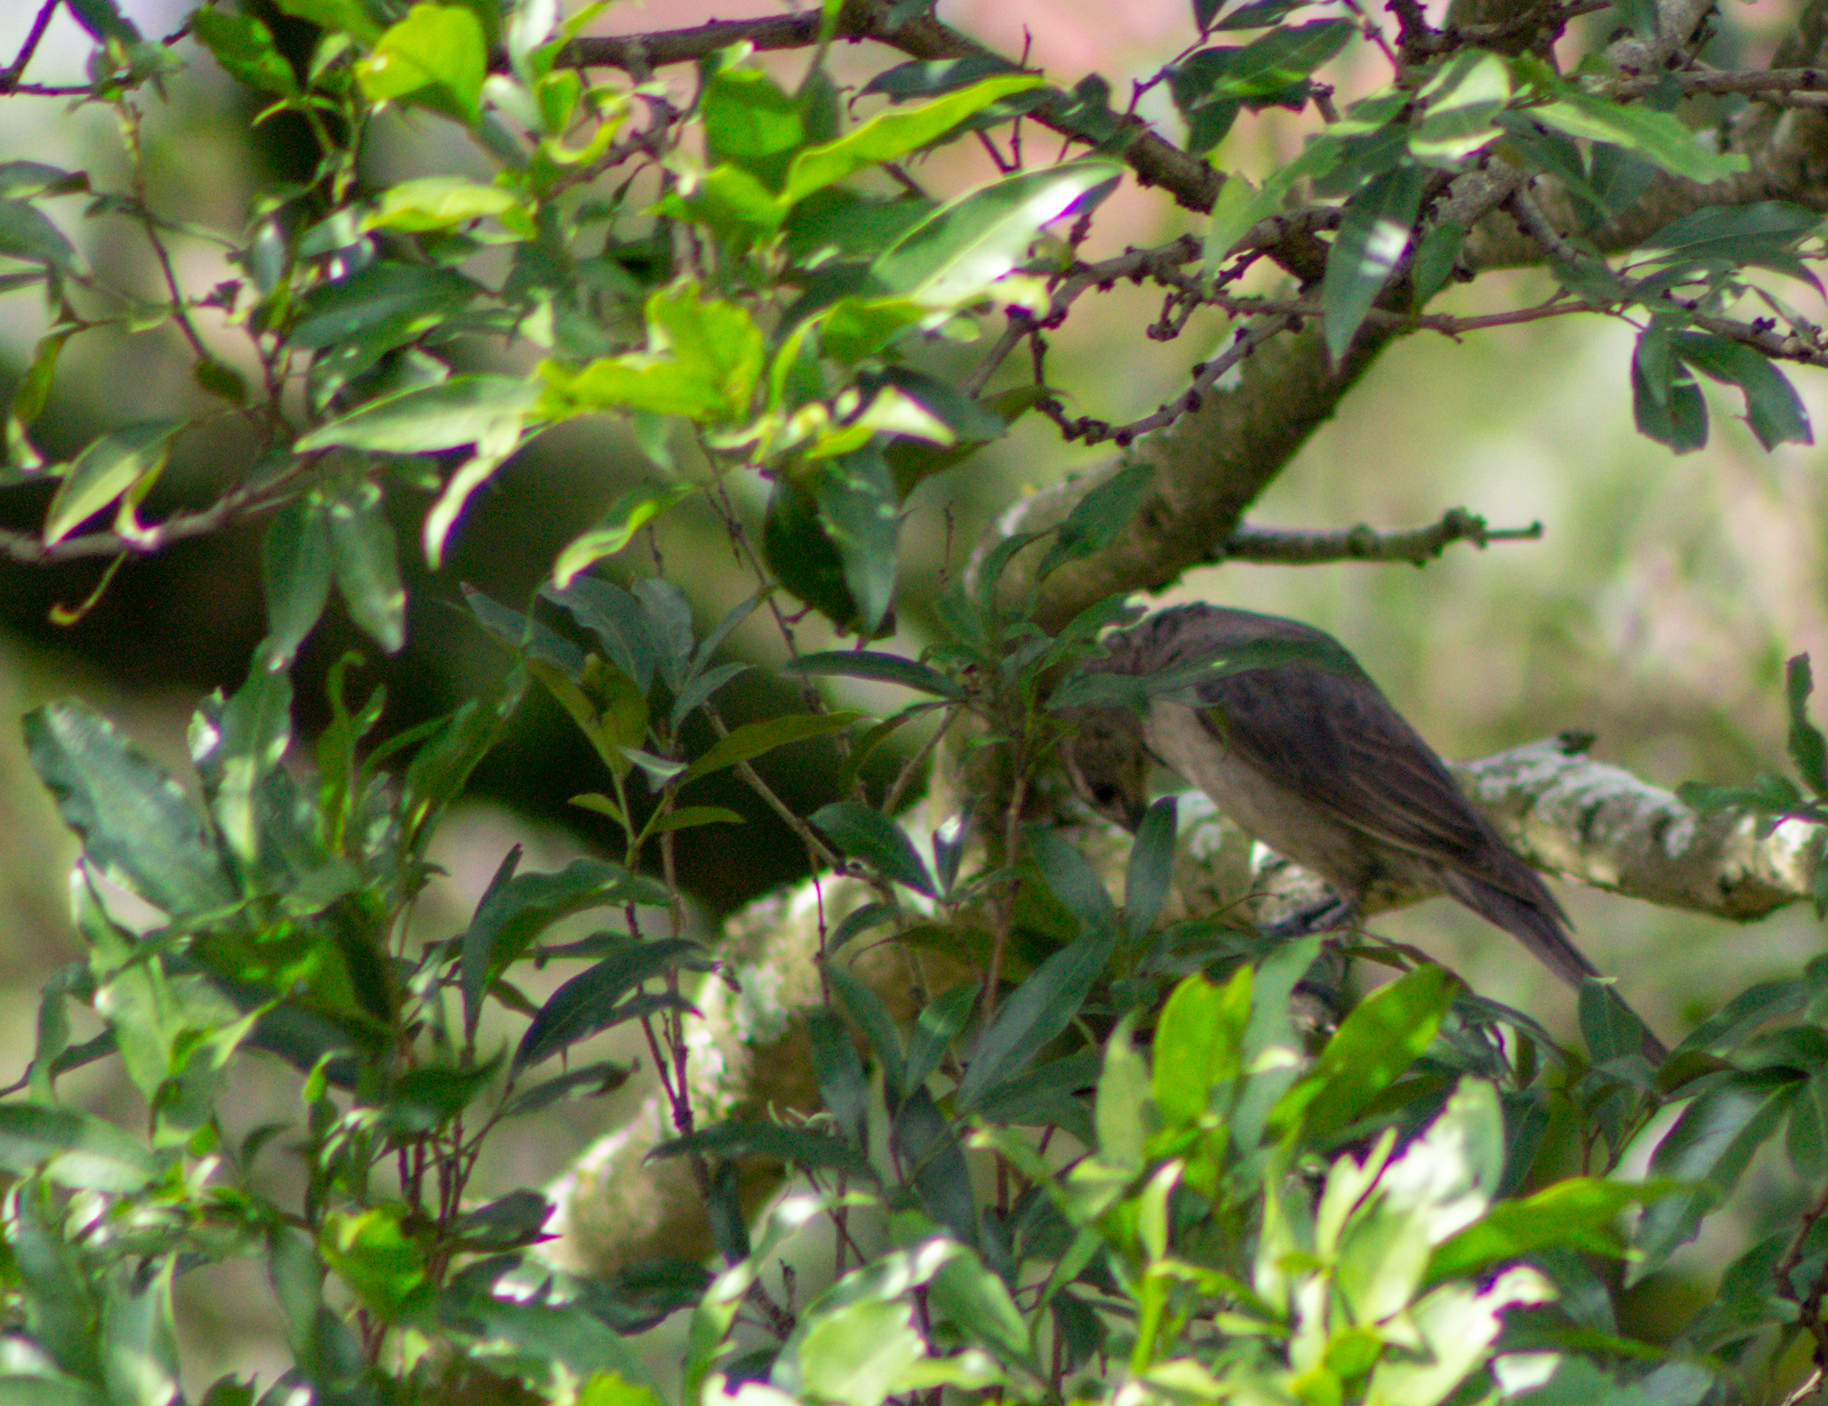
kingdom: Animalia
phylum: Chordata
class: Aves
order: Passeriformes
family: Icteridae
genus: Molothrus
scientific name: Molothrus bonariensis
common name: Shiny cowbird
